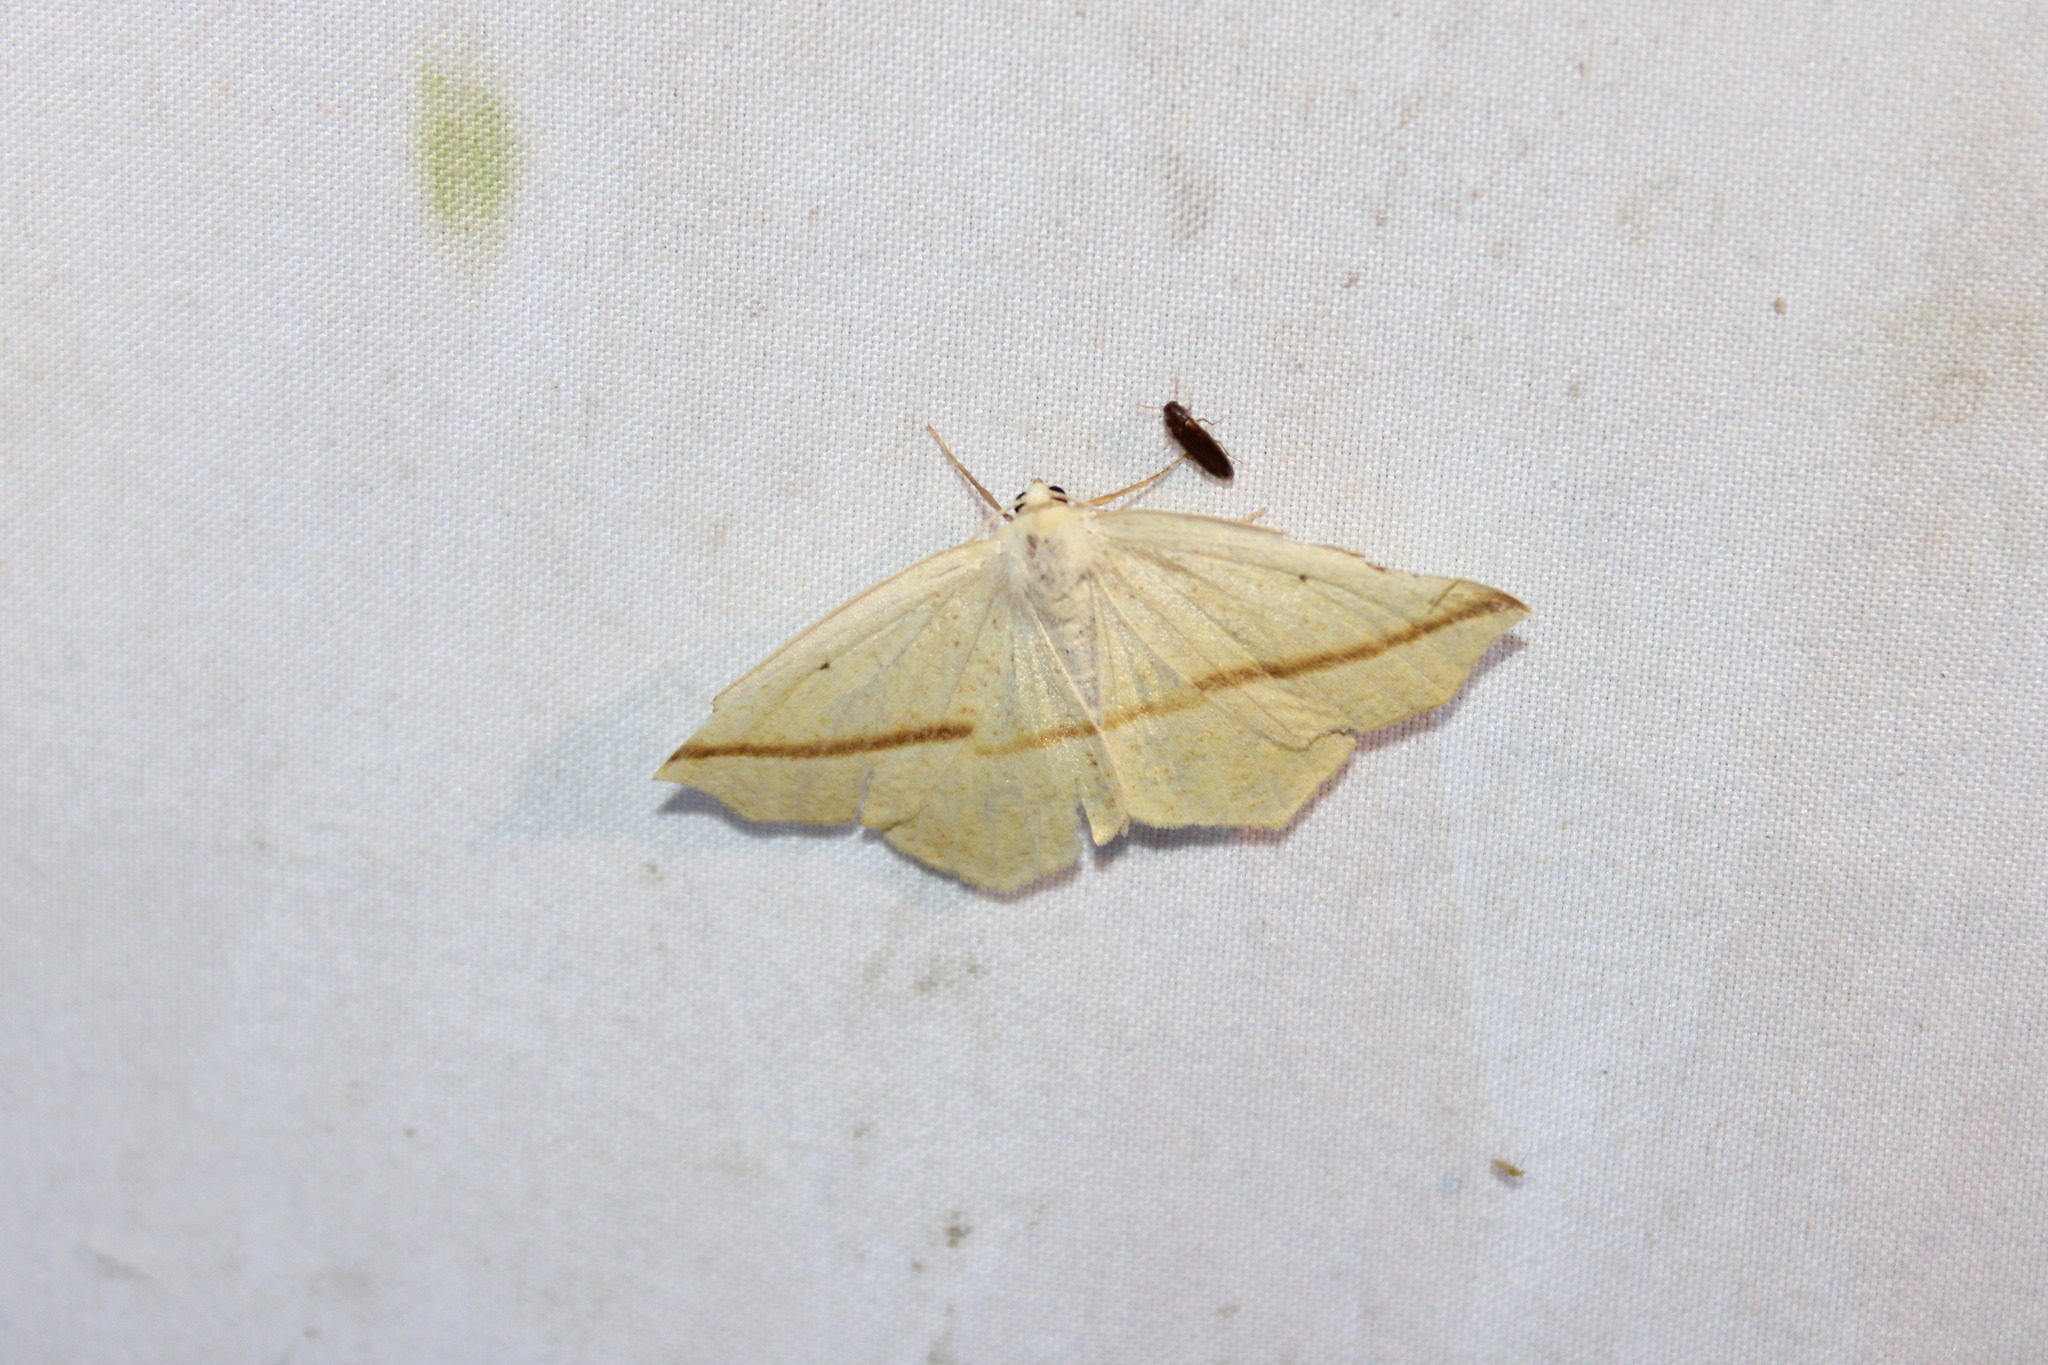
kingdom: Animalia
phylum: Arthropoda
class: Insecta
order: Lepidoptera
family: Geometridae
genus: Tetracis
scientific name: Tetracis crocallata
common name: Yellow slant-line
